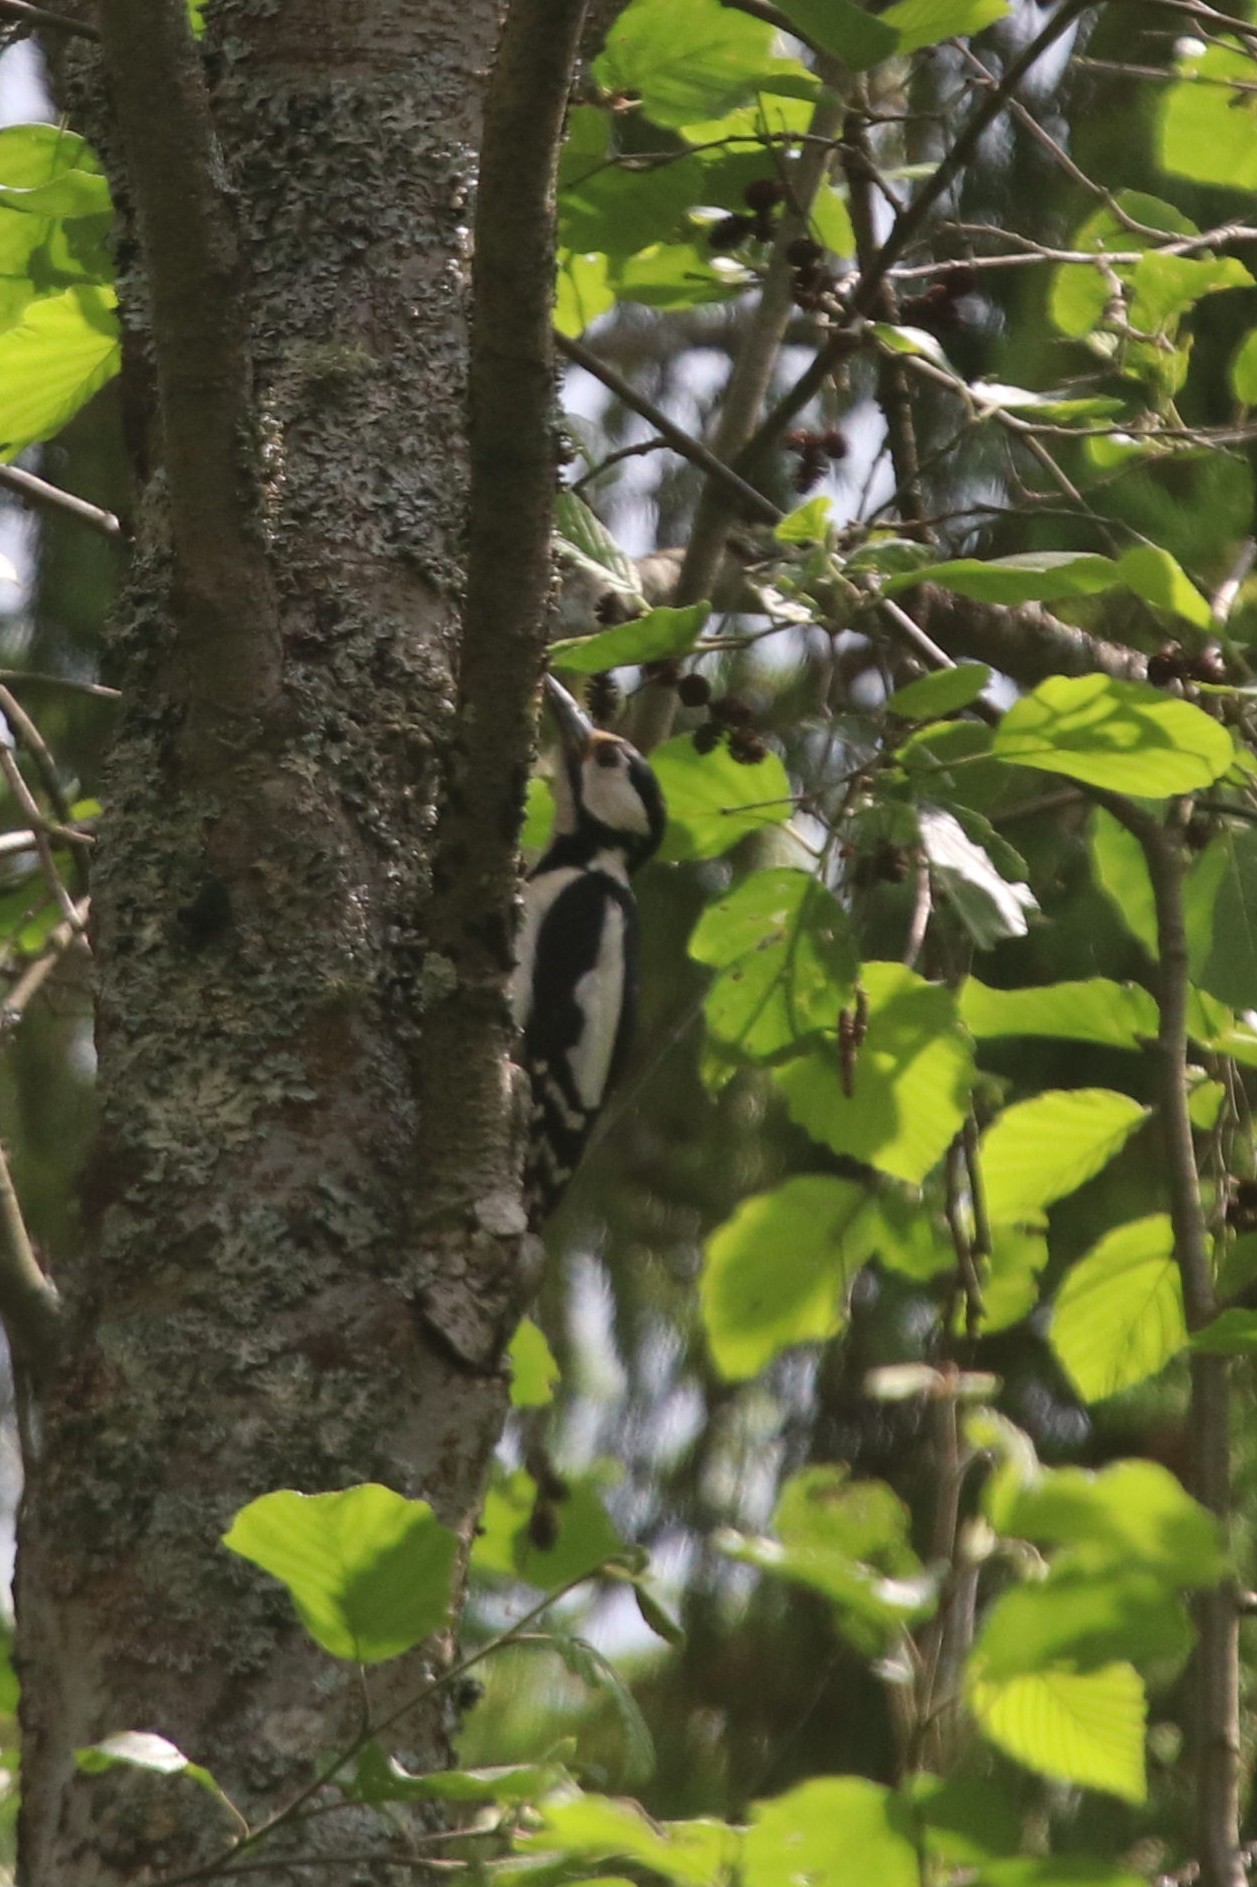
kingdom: Animalia
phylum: Chordata
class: Aves
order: Piciformes
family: Picidae
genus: Dendrocopos
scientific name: Dendrocopos major
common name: Great spotted woodpecker
